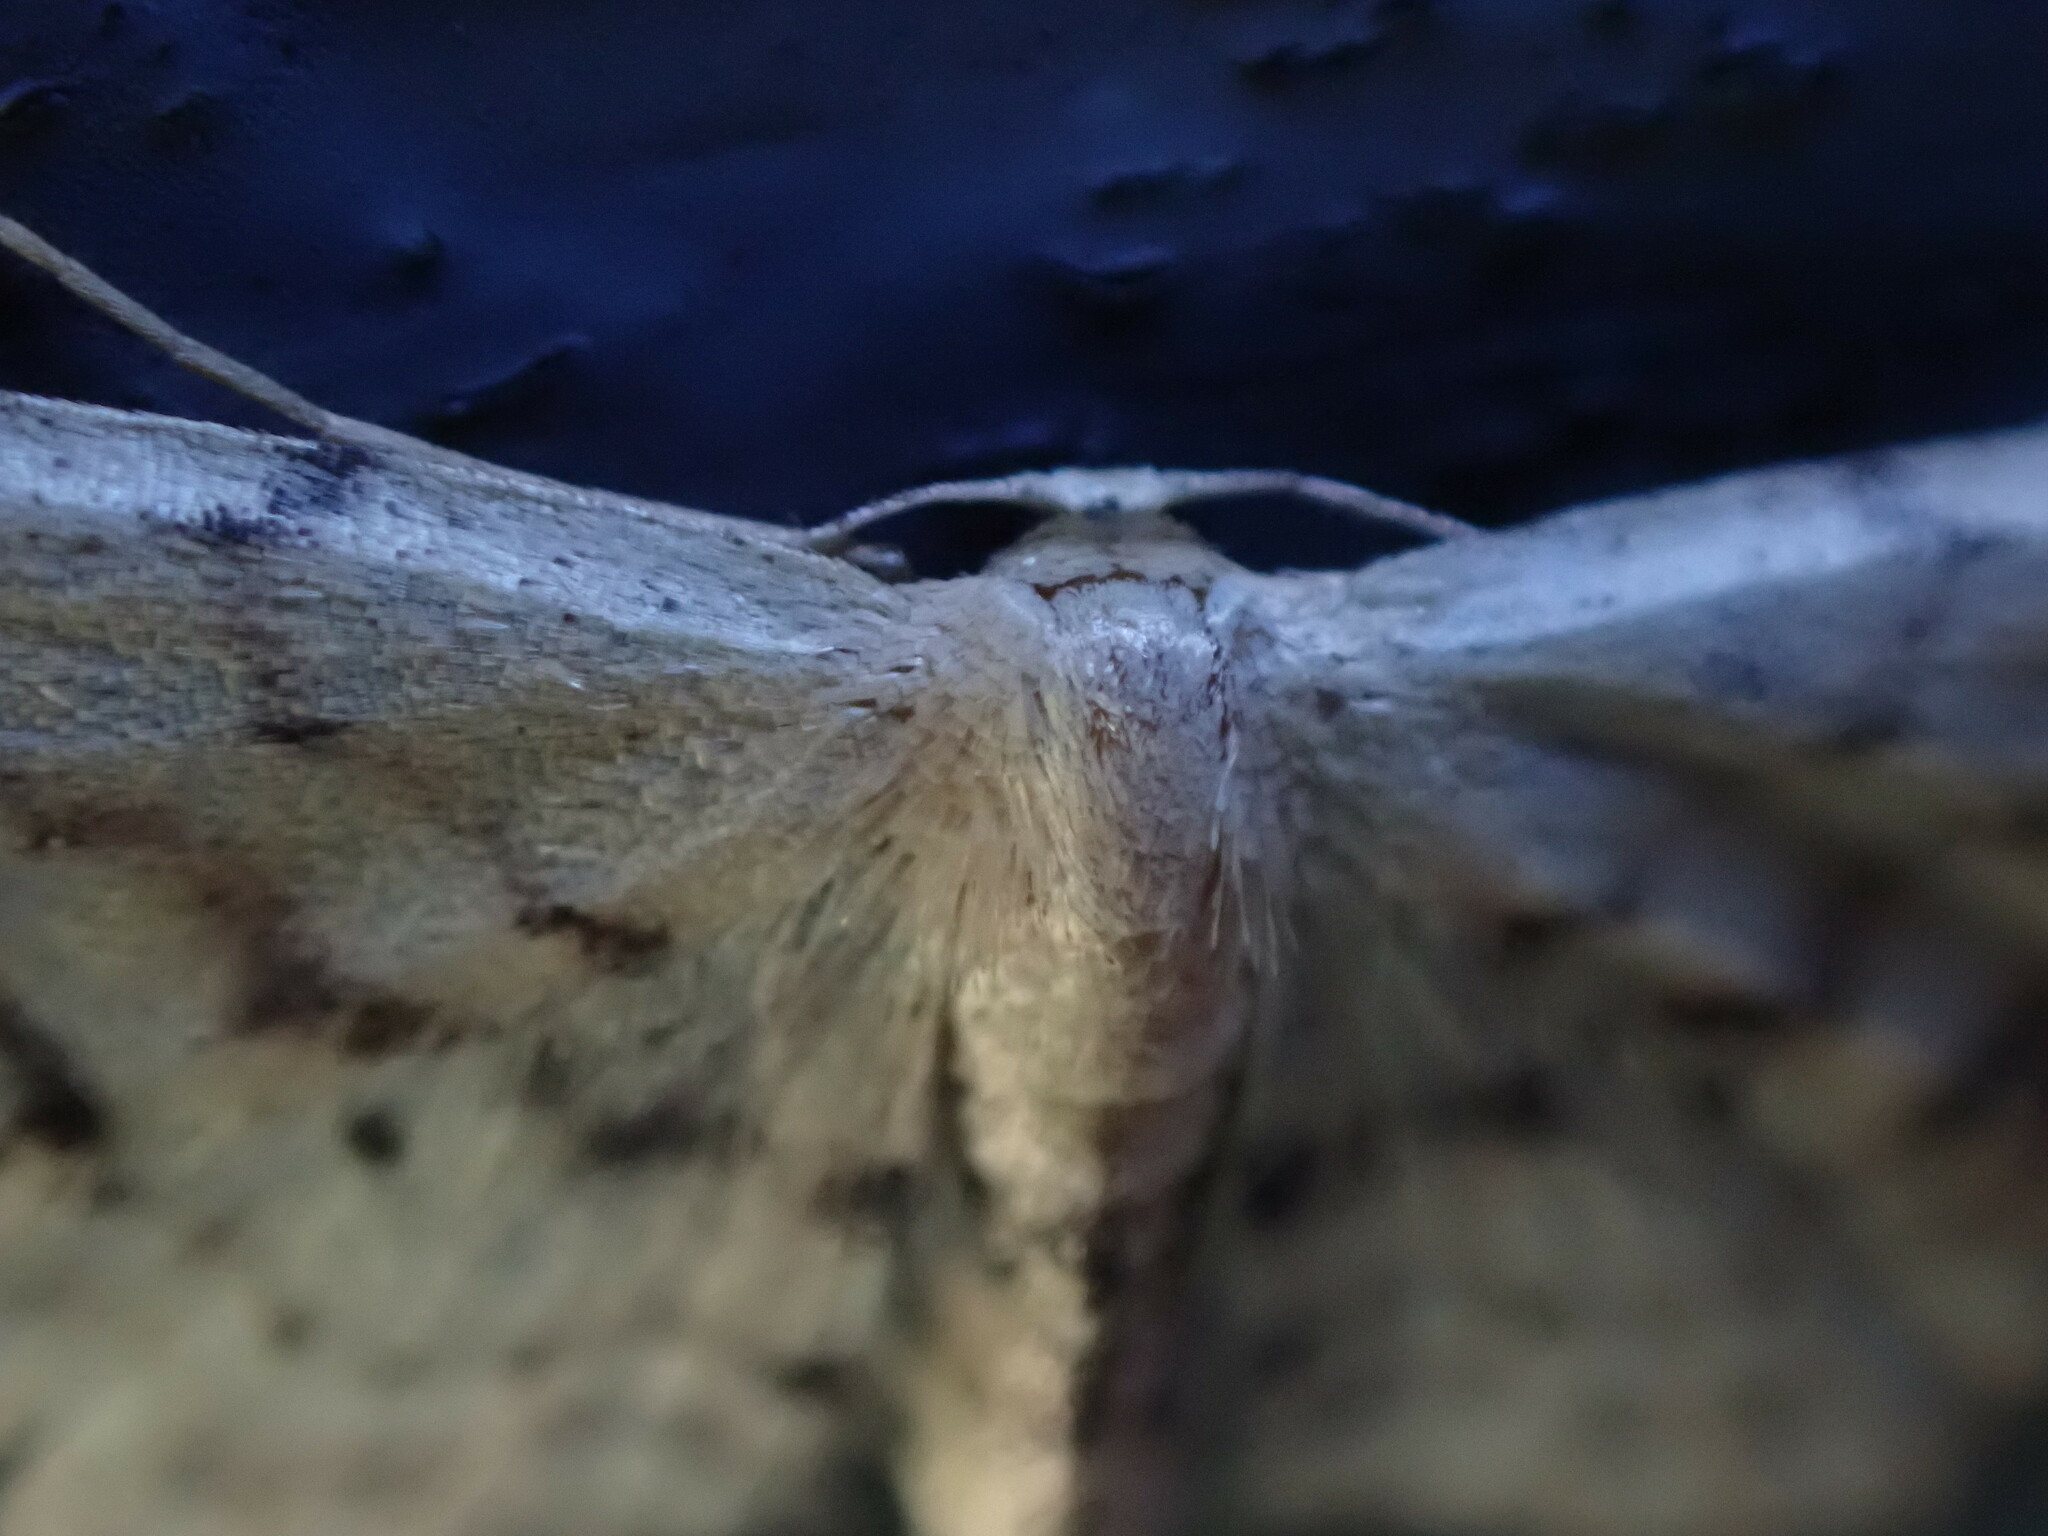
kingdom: Animalia
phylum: Arthropoda
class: Insecta
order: Lepidoptera
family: Geometridae
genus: Idaea
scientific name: Idaea dimidiata
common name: Single-dotted wave
